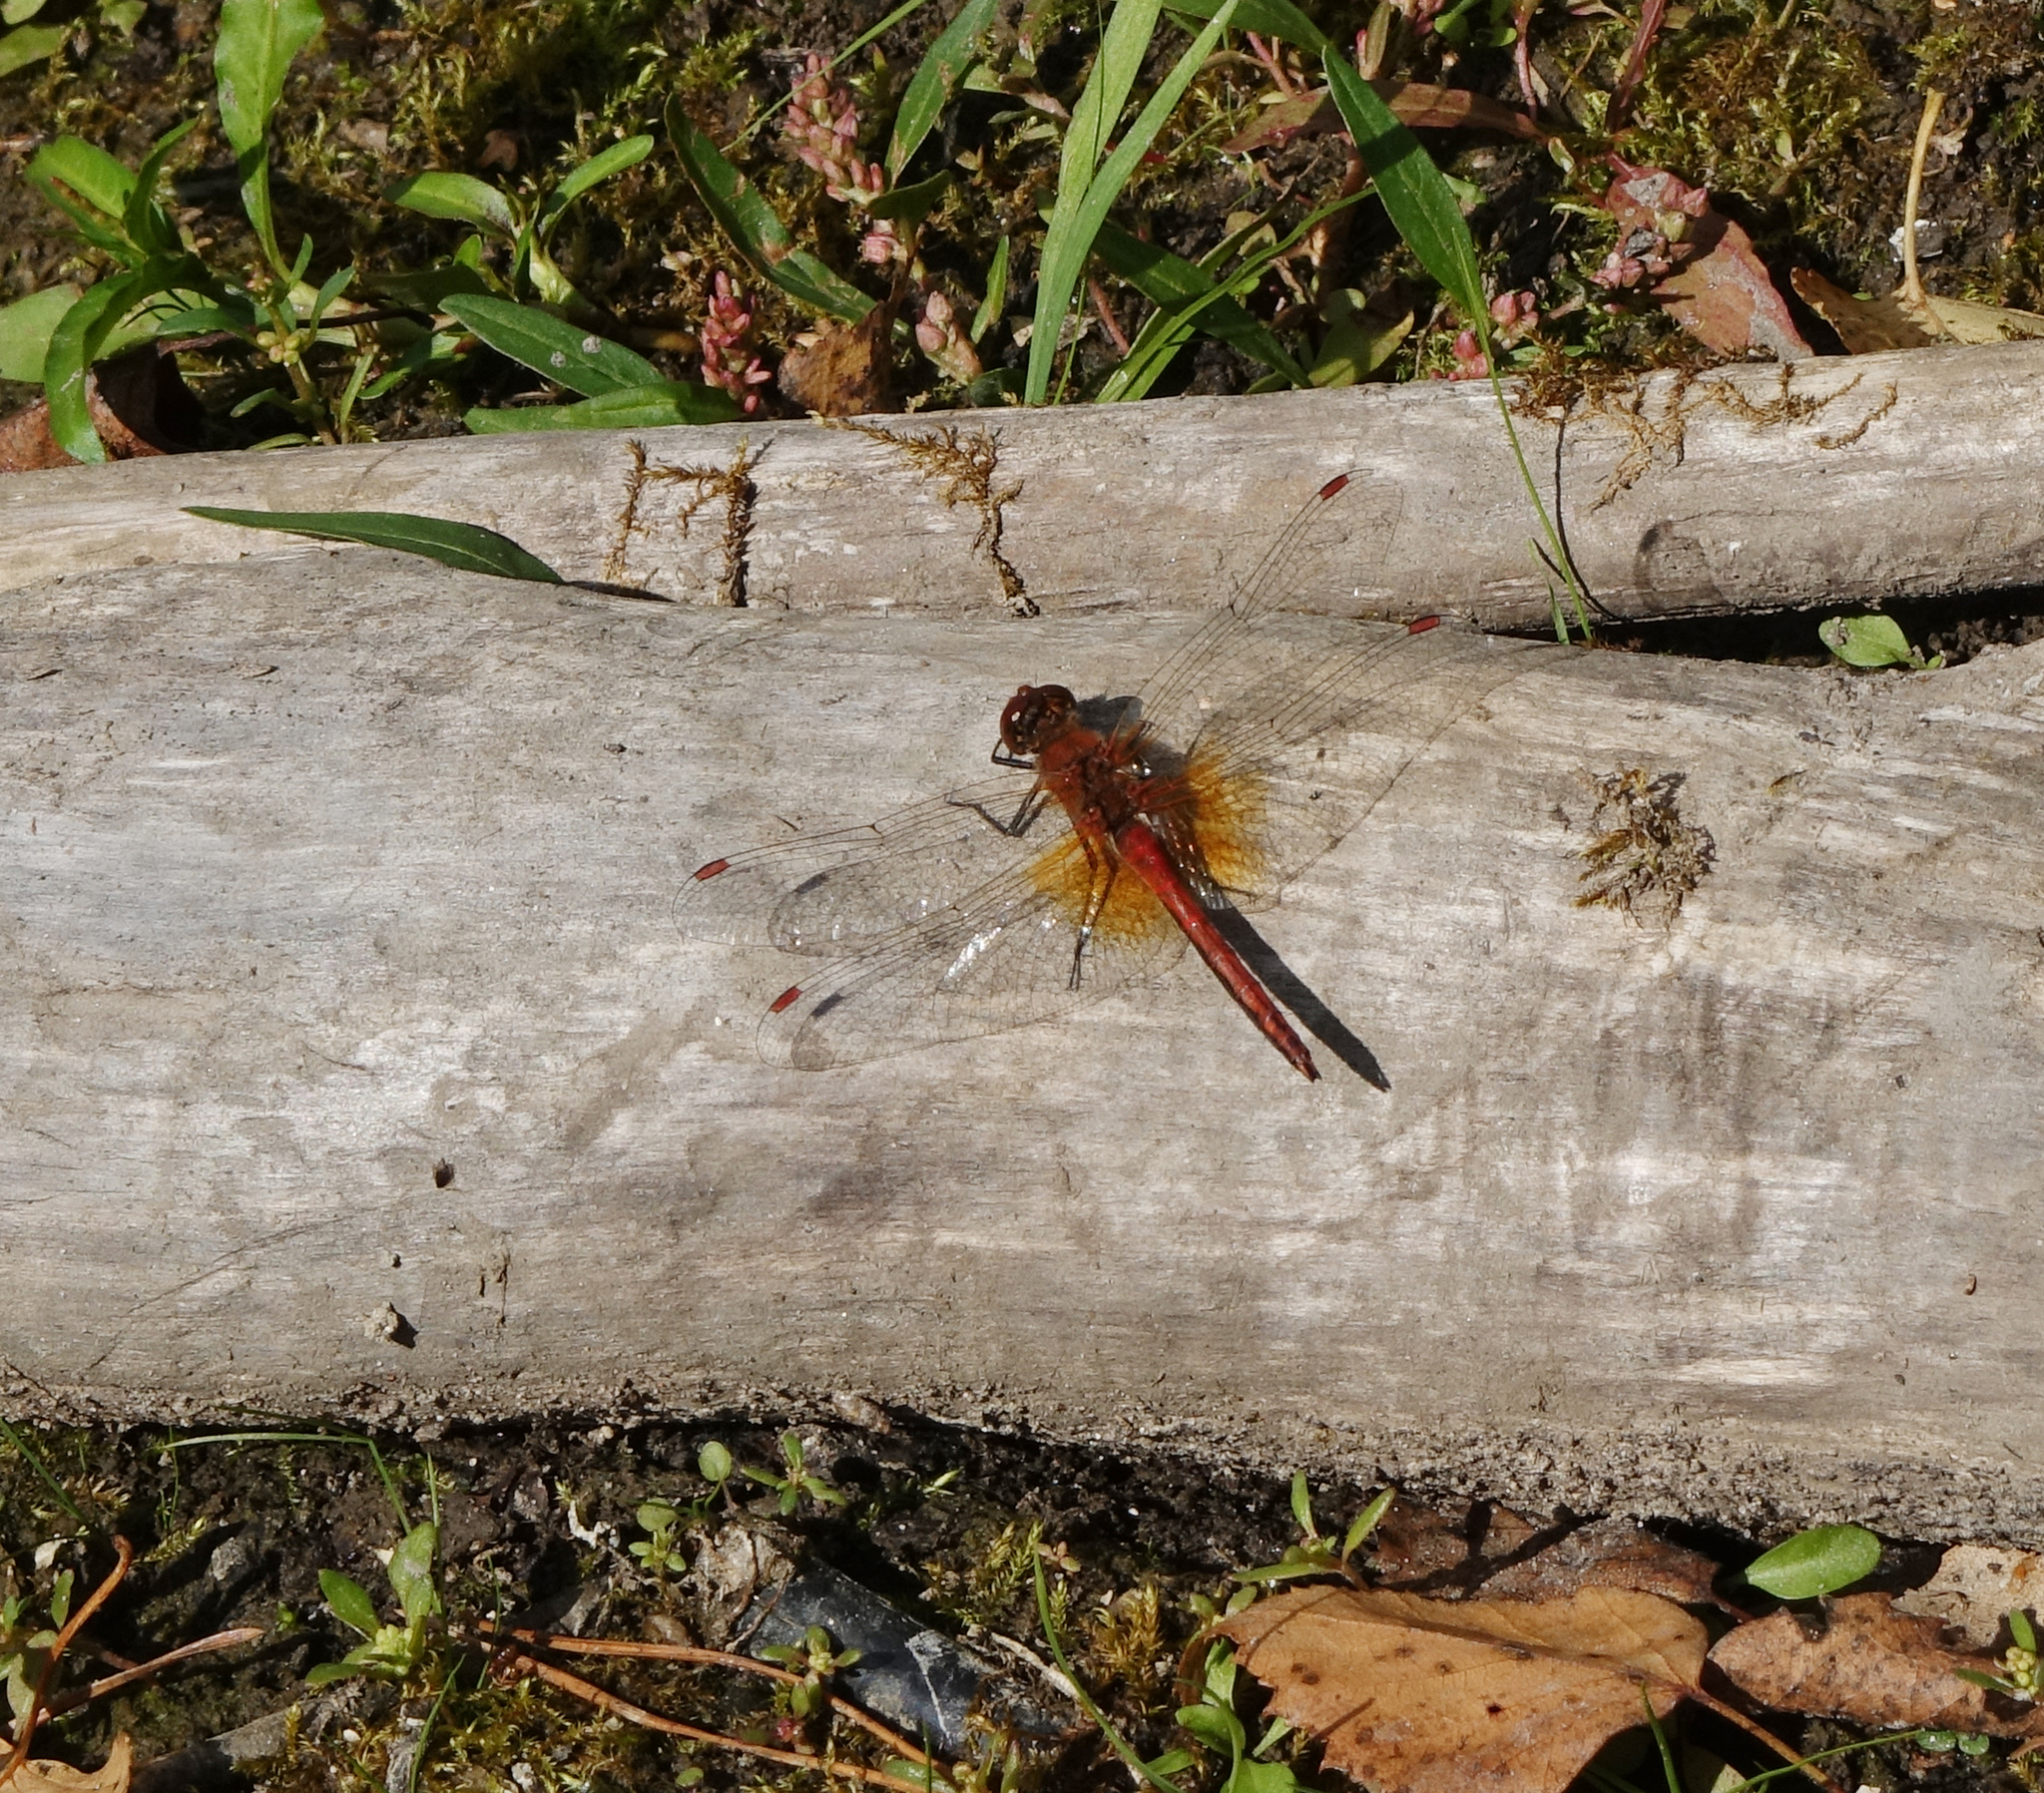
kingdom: Animalia
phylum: Arthropoda
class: Insecta
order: Odonata
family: Libellulidae
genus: Sympetrum
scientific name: Sympetrum flaveolum
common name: Yellow-winged darter
